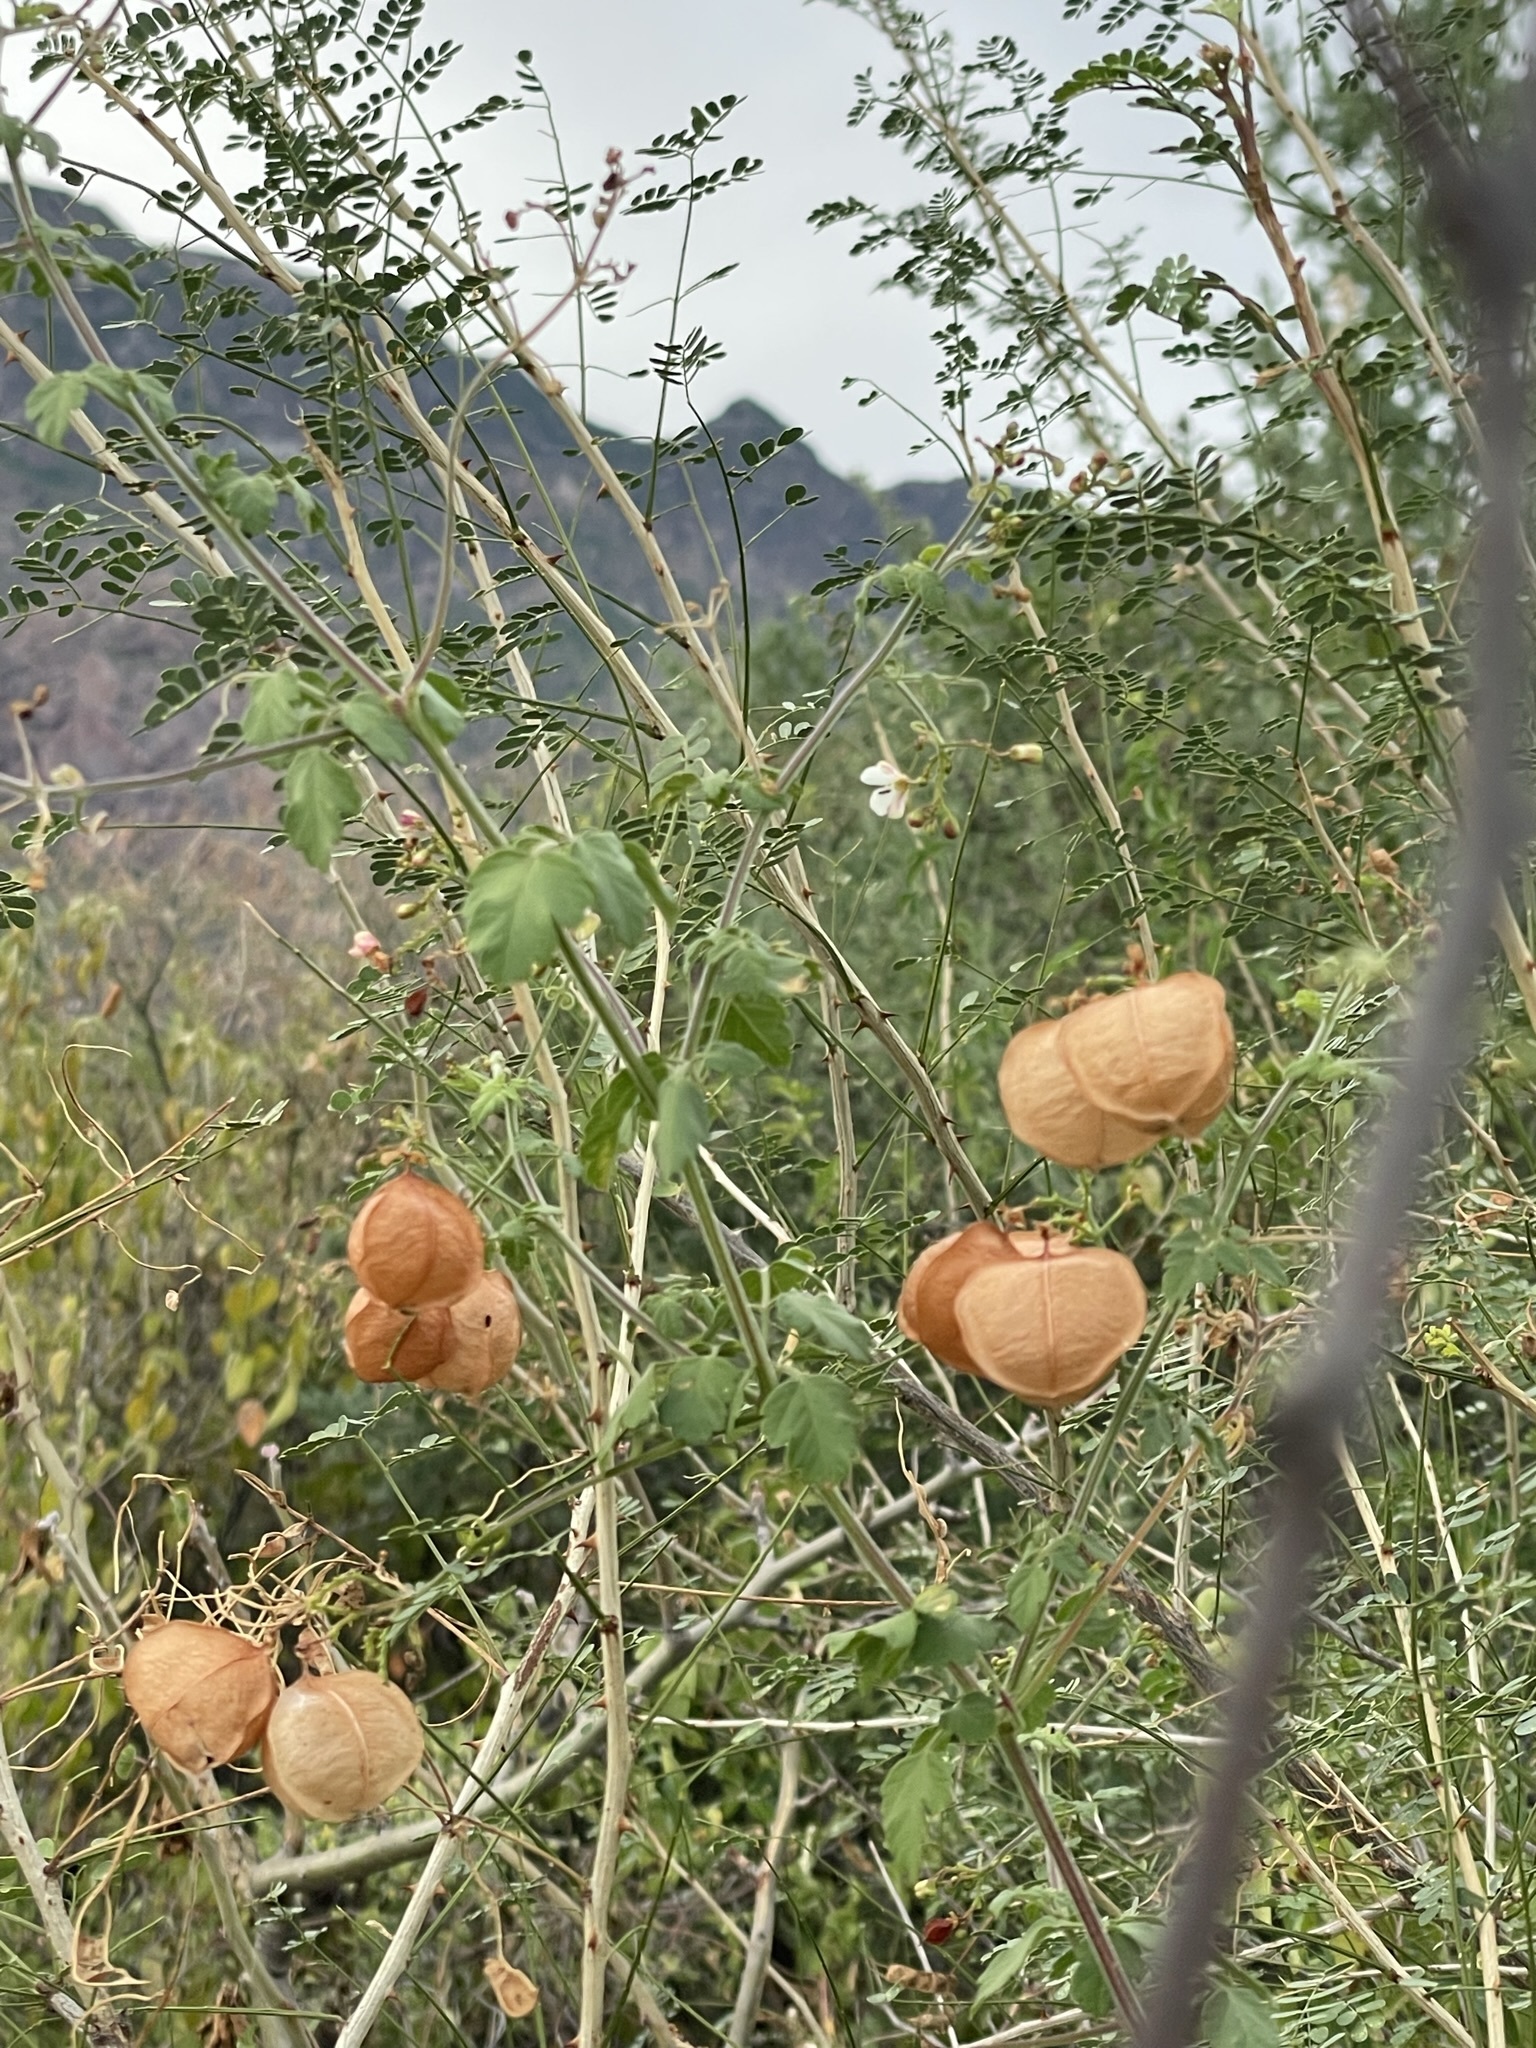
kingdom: Plantae
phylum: Tracheophyta
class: Magnoliopsida
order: Sapindales
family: Sapindaceae
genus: Cardiospermum
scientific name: Cardiospermum corindum
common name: Faux persil
